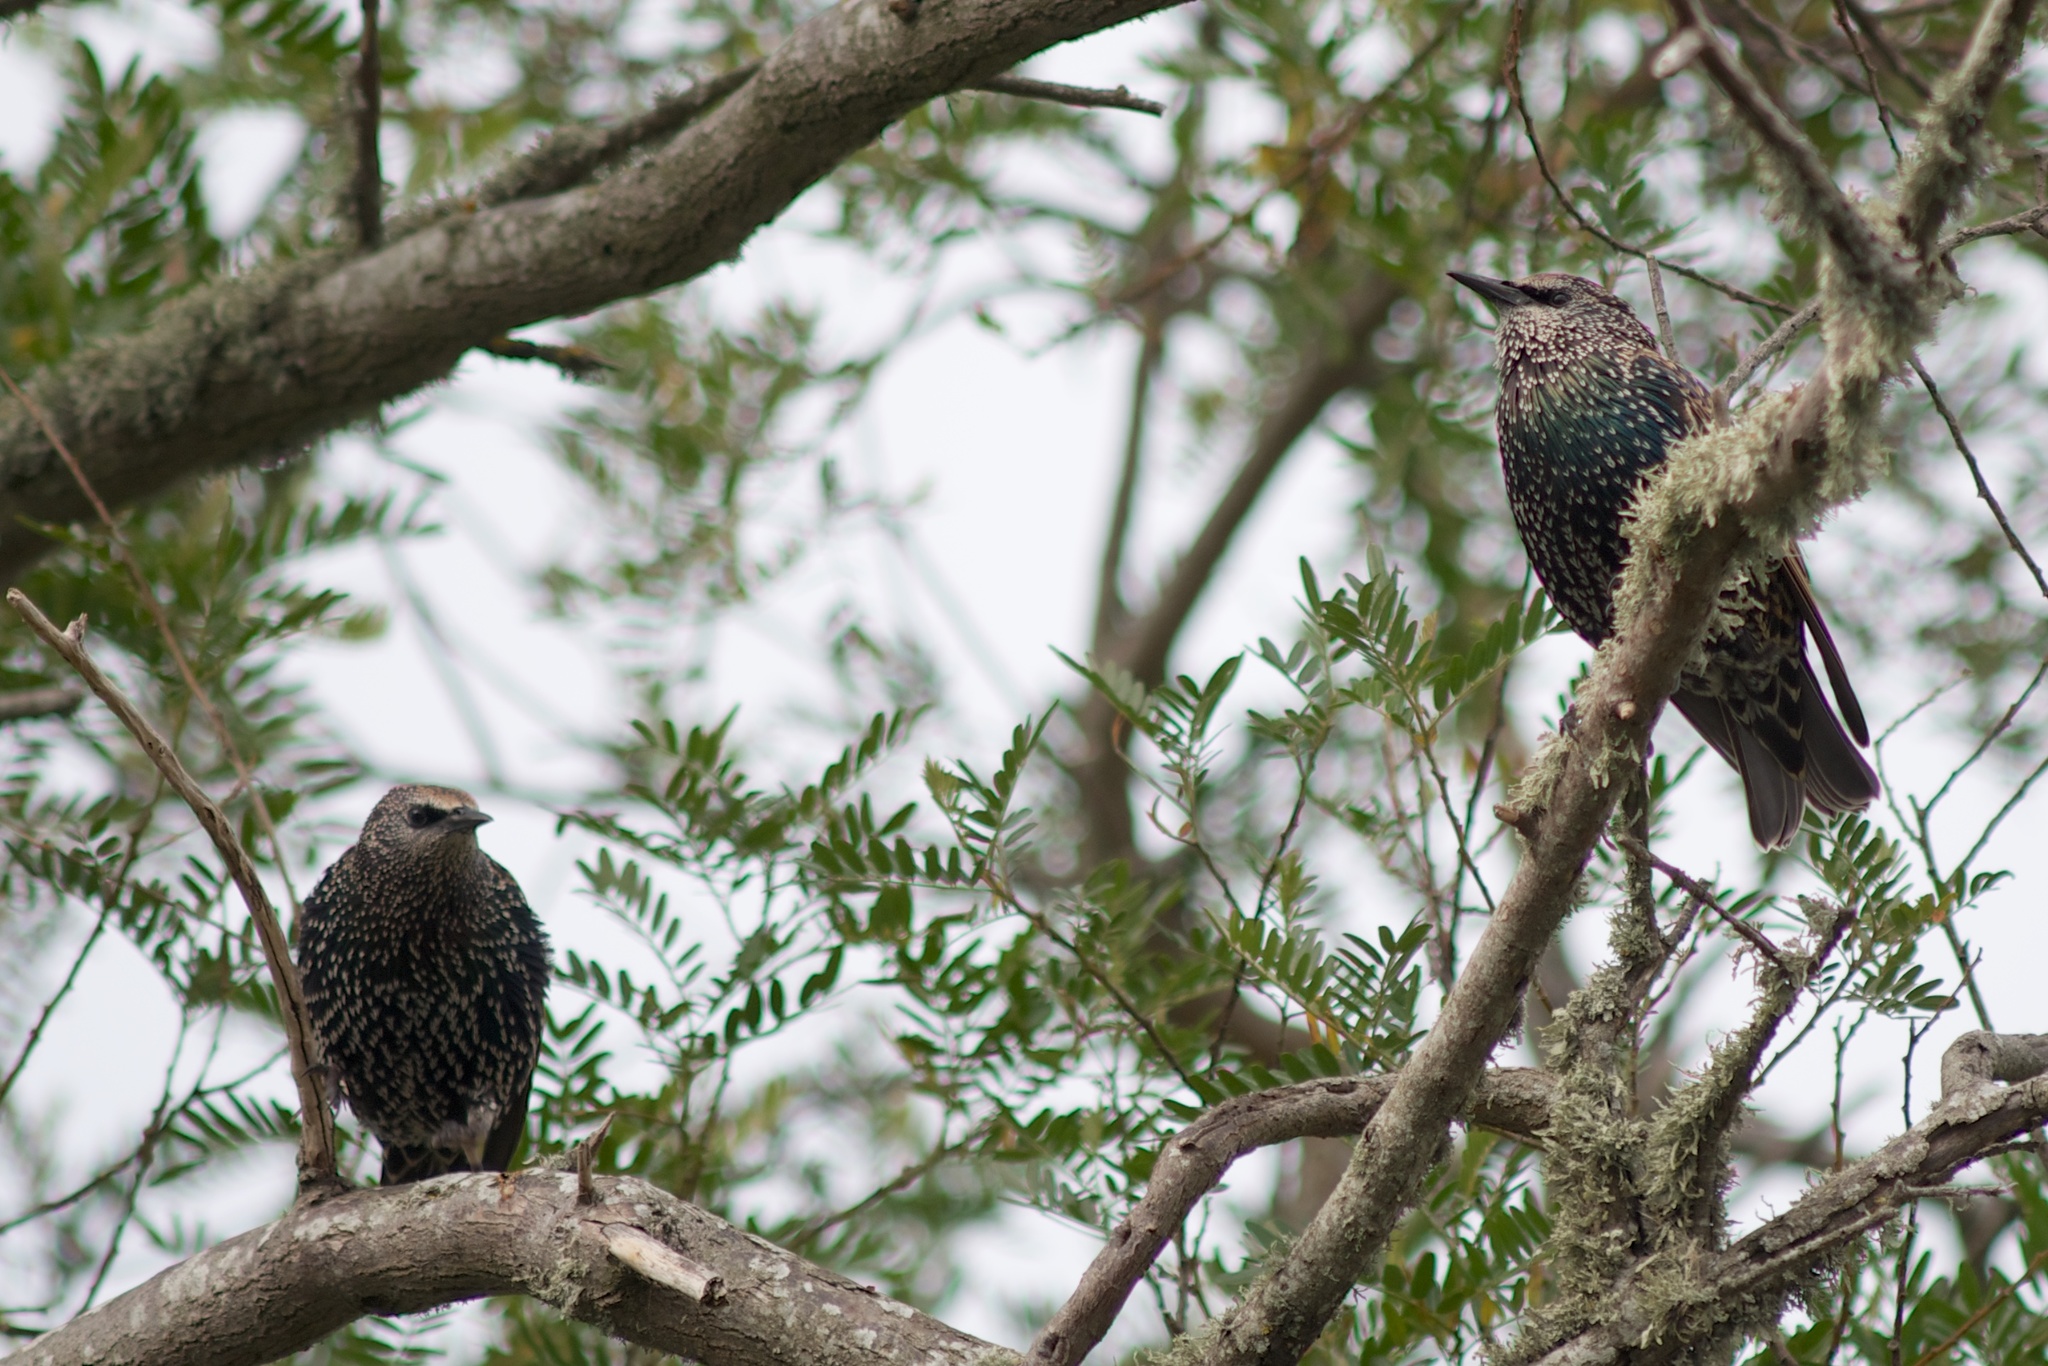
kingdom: Animalia
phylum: Chordata
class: Aves
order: Passeriformes
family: Sturnidae
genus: Sturnus
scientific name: Sturnus vulgaris
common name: Common starling
